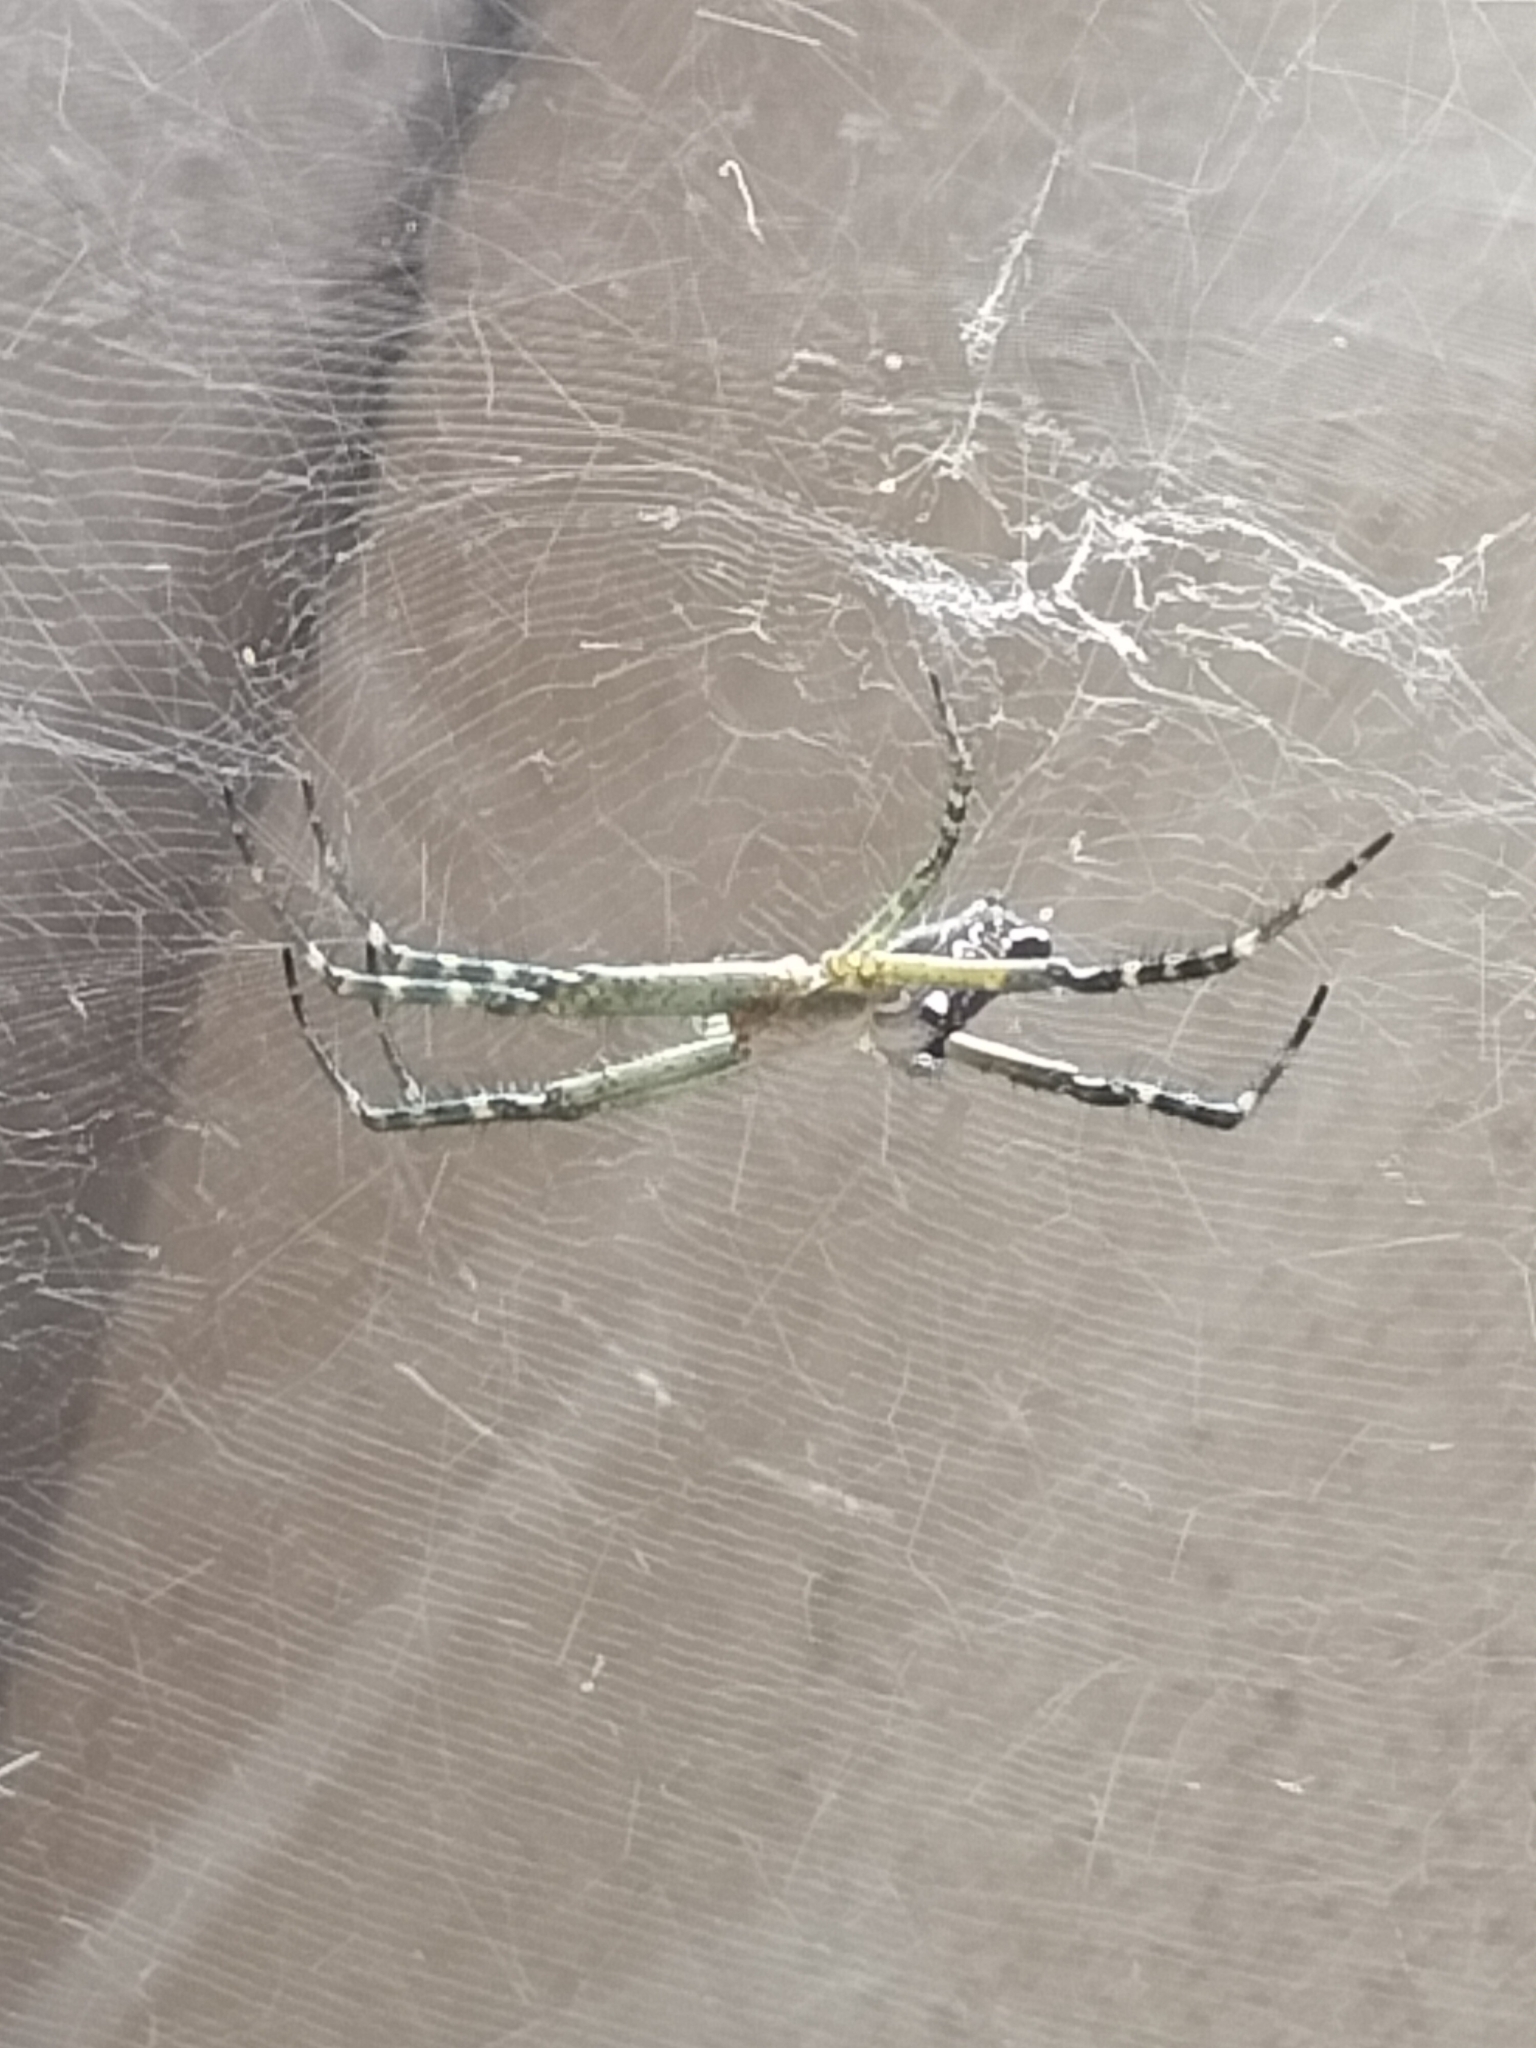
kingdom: Chromista
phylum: Ochrophyta
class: Dictyochophyceae
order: Pedinellales
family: Cyrtophoraceae
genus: Cyrtophora
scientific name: Cyrtophora moluccensis
